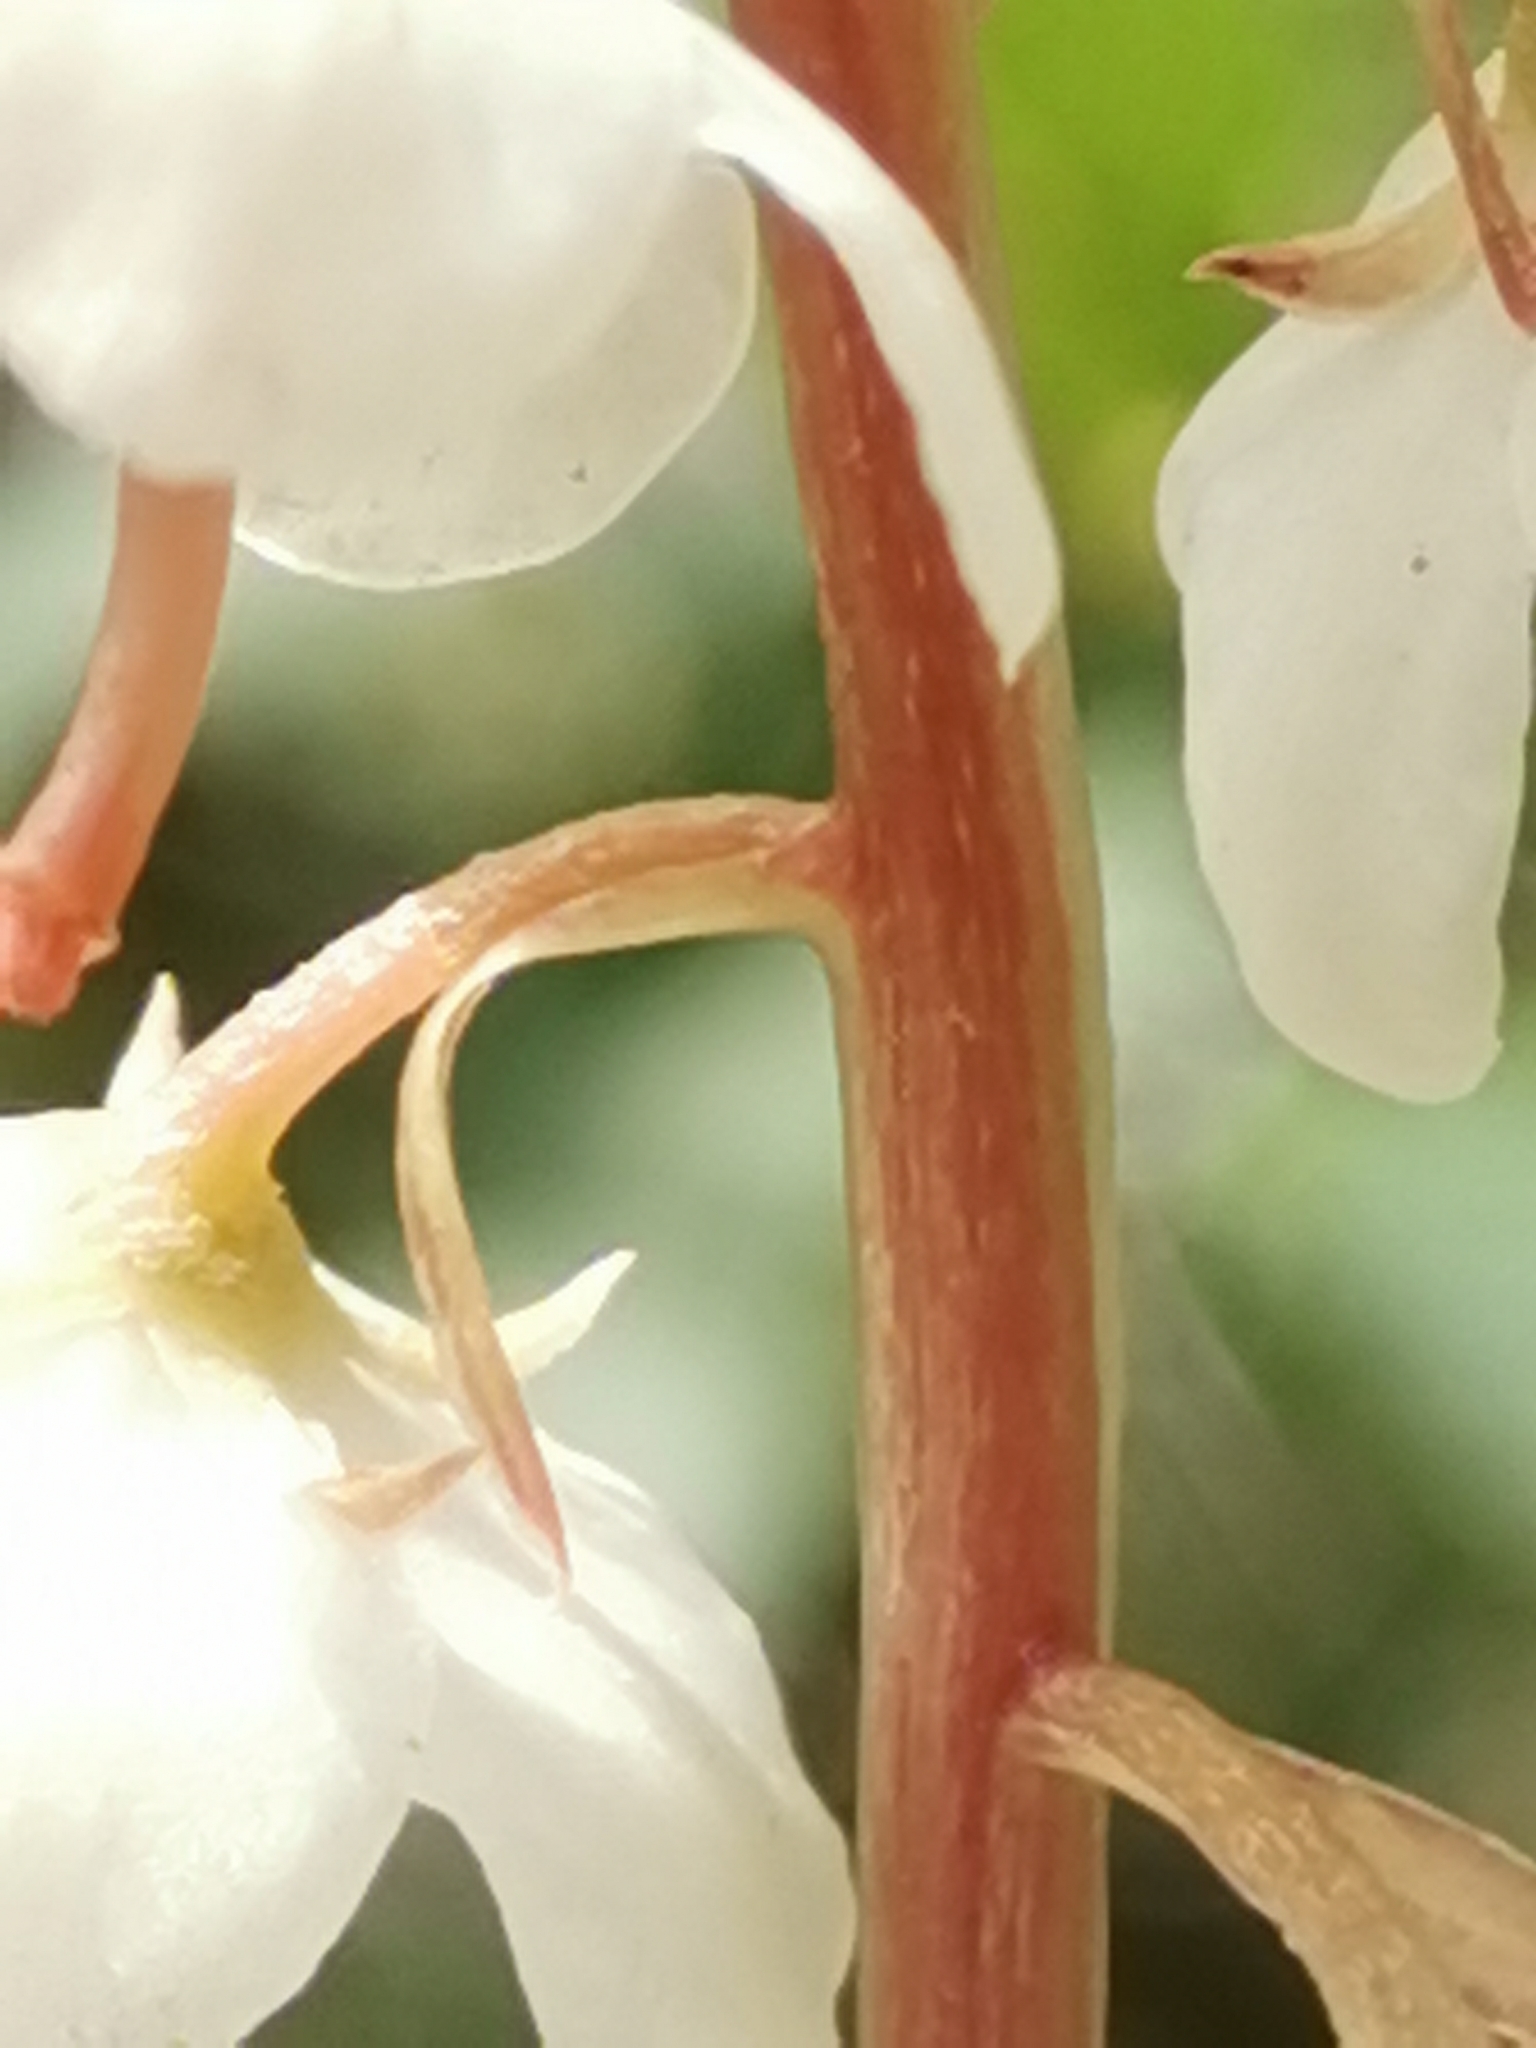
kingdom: Plantae
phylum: Tracheophyta
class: Magnoliopsida
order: Ericales
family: Ericaceae
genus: Pyrola
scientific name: Pyrola rotundifolia
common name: Round-leaved wintergreen
